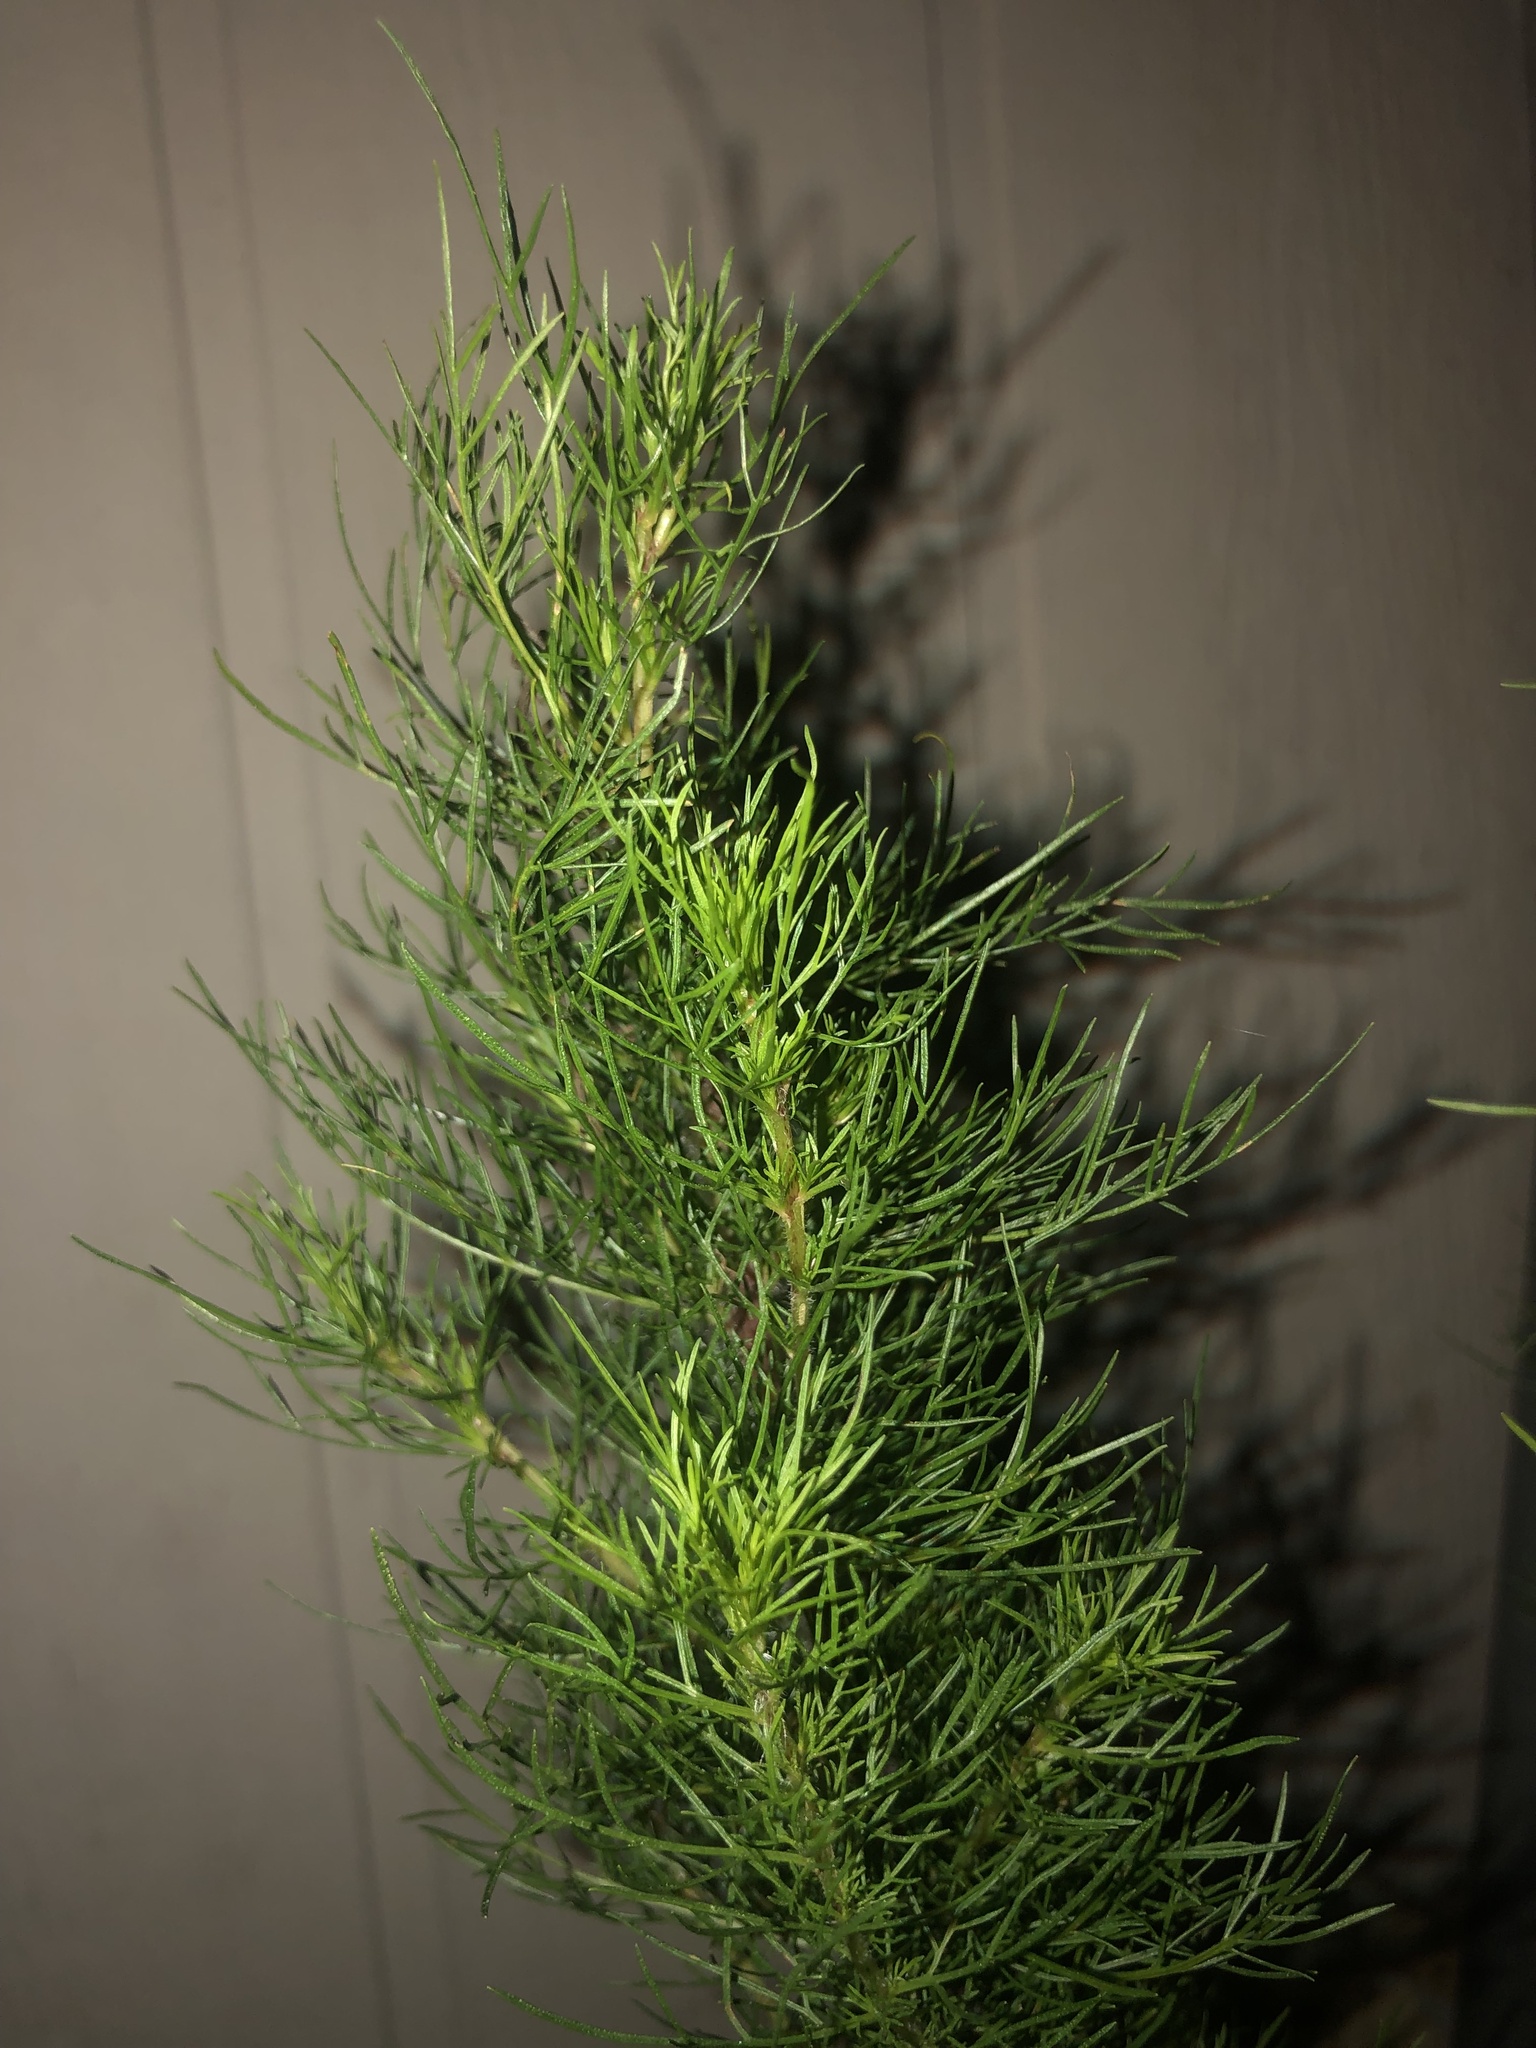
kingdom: Plantae
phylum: Tracheophyta
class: Magnoliopsida
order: Asterales
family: Asteraceae
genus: Eupatorium
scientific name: Eupatorium capillifolium
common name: Dog-fennel
